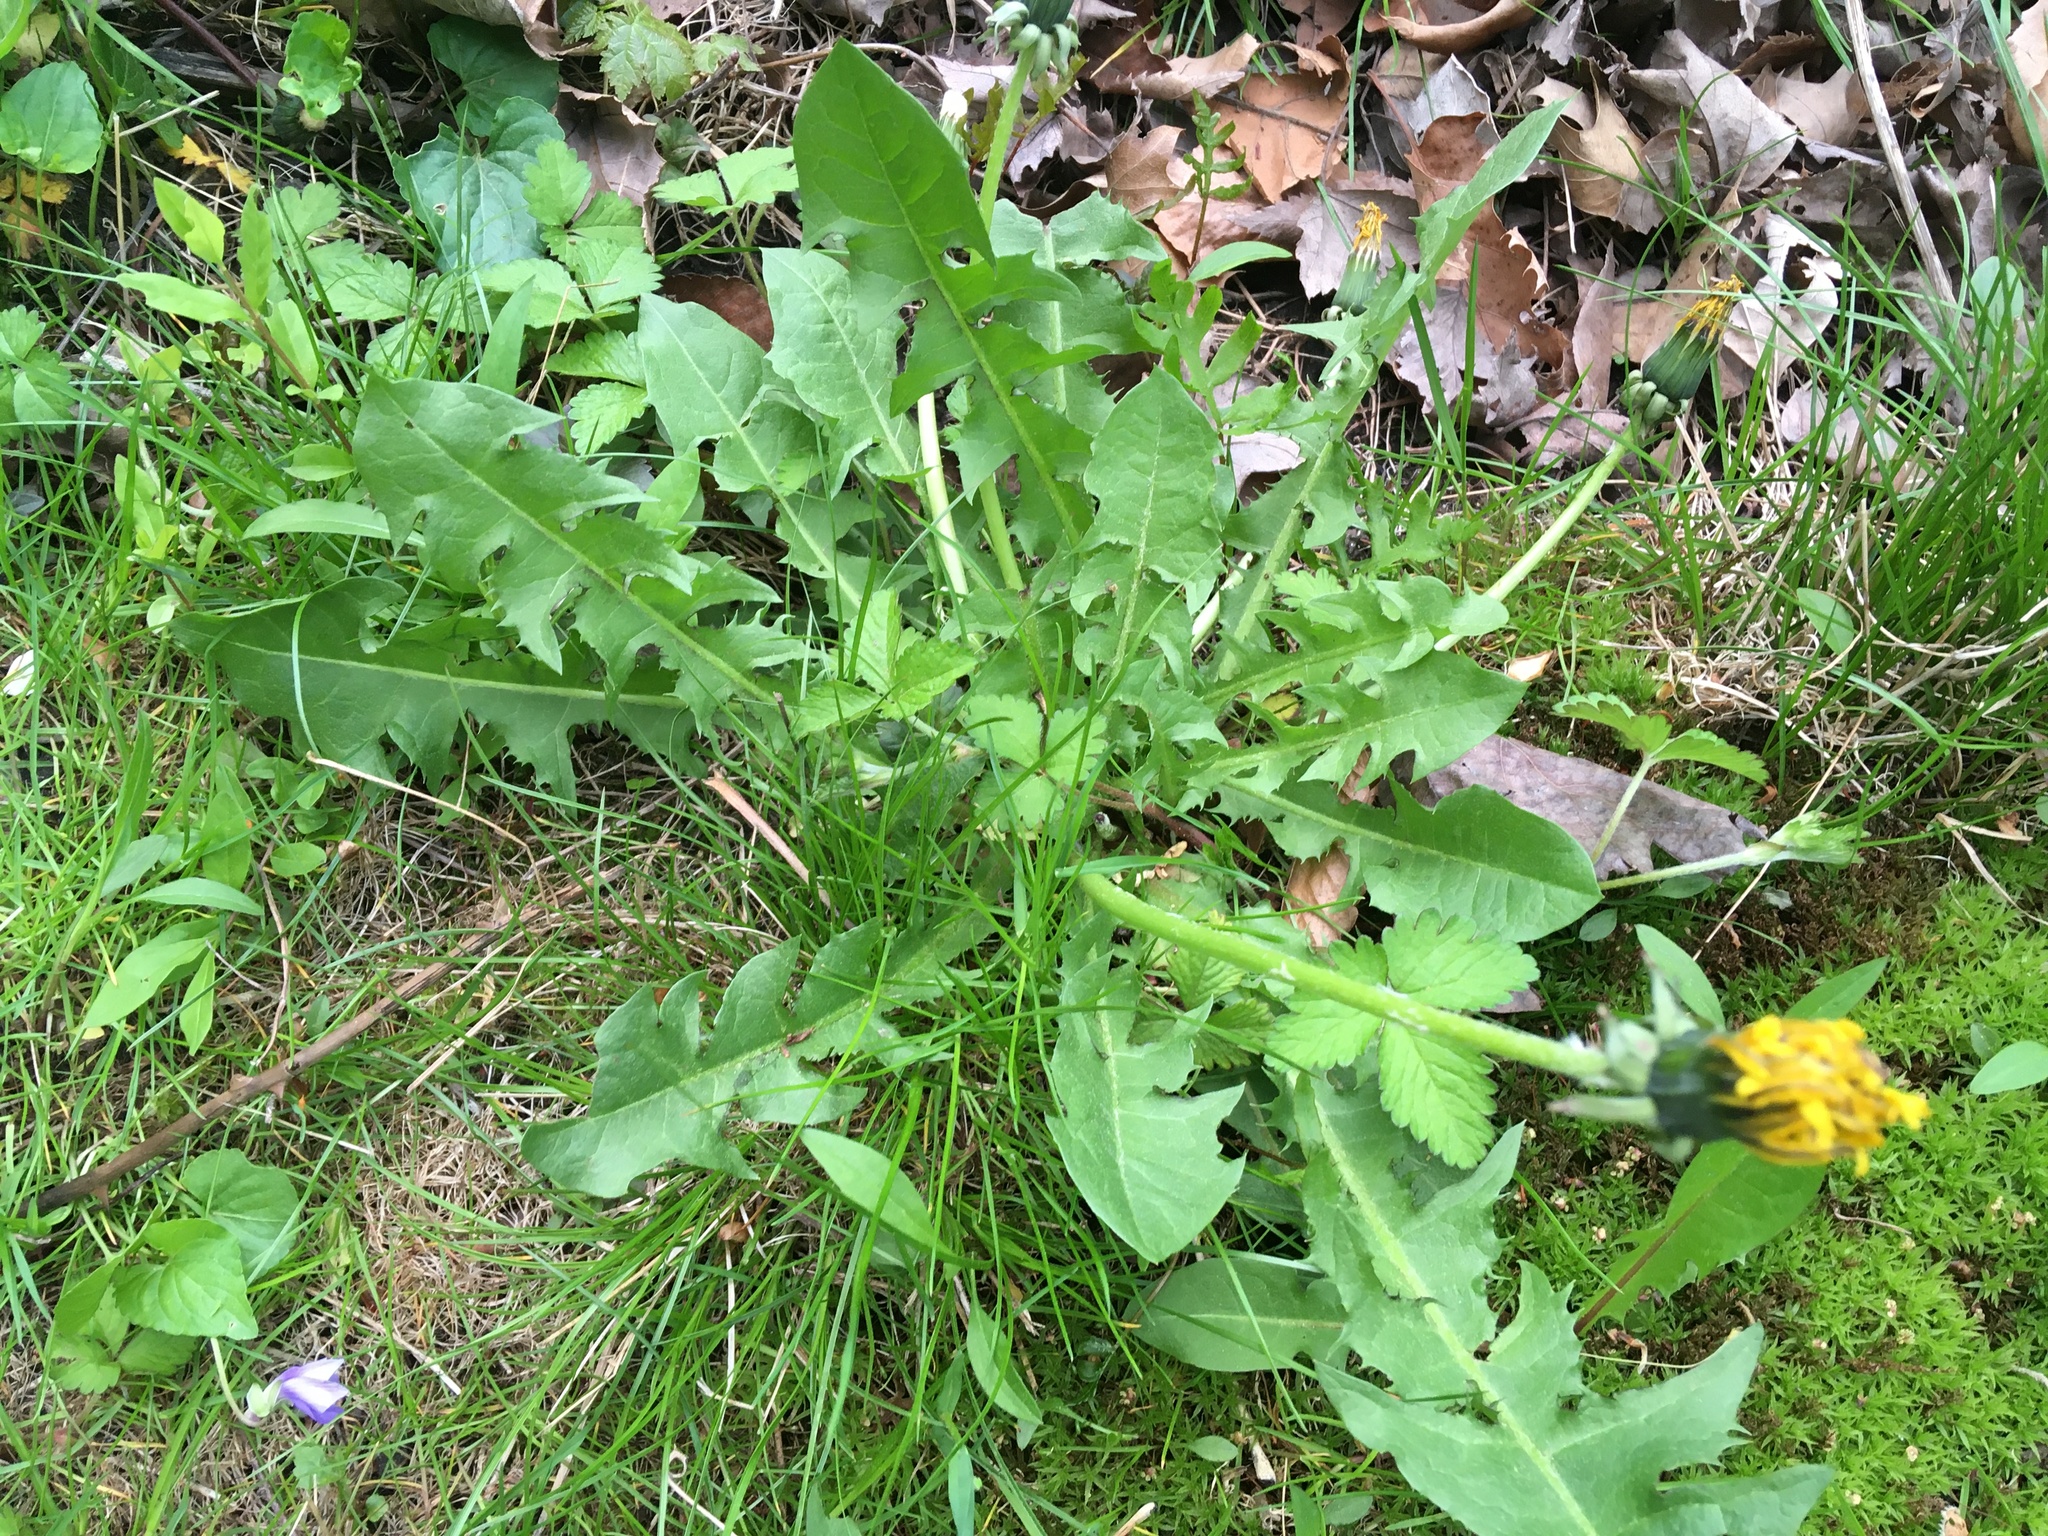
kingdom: Plantae
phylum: Tracheophyta
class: Magnoliopsida
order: Asterales
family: Asteraceae
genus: Taraxacum
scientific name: Taraxacum officinale
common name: Common dandelion
